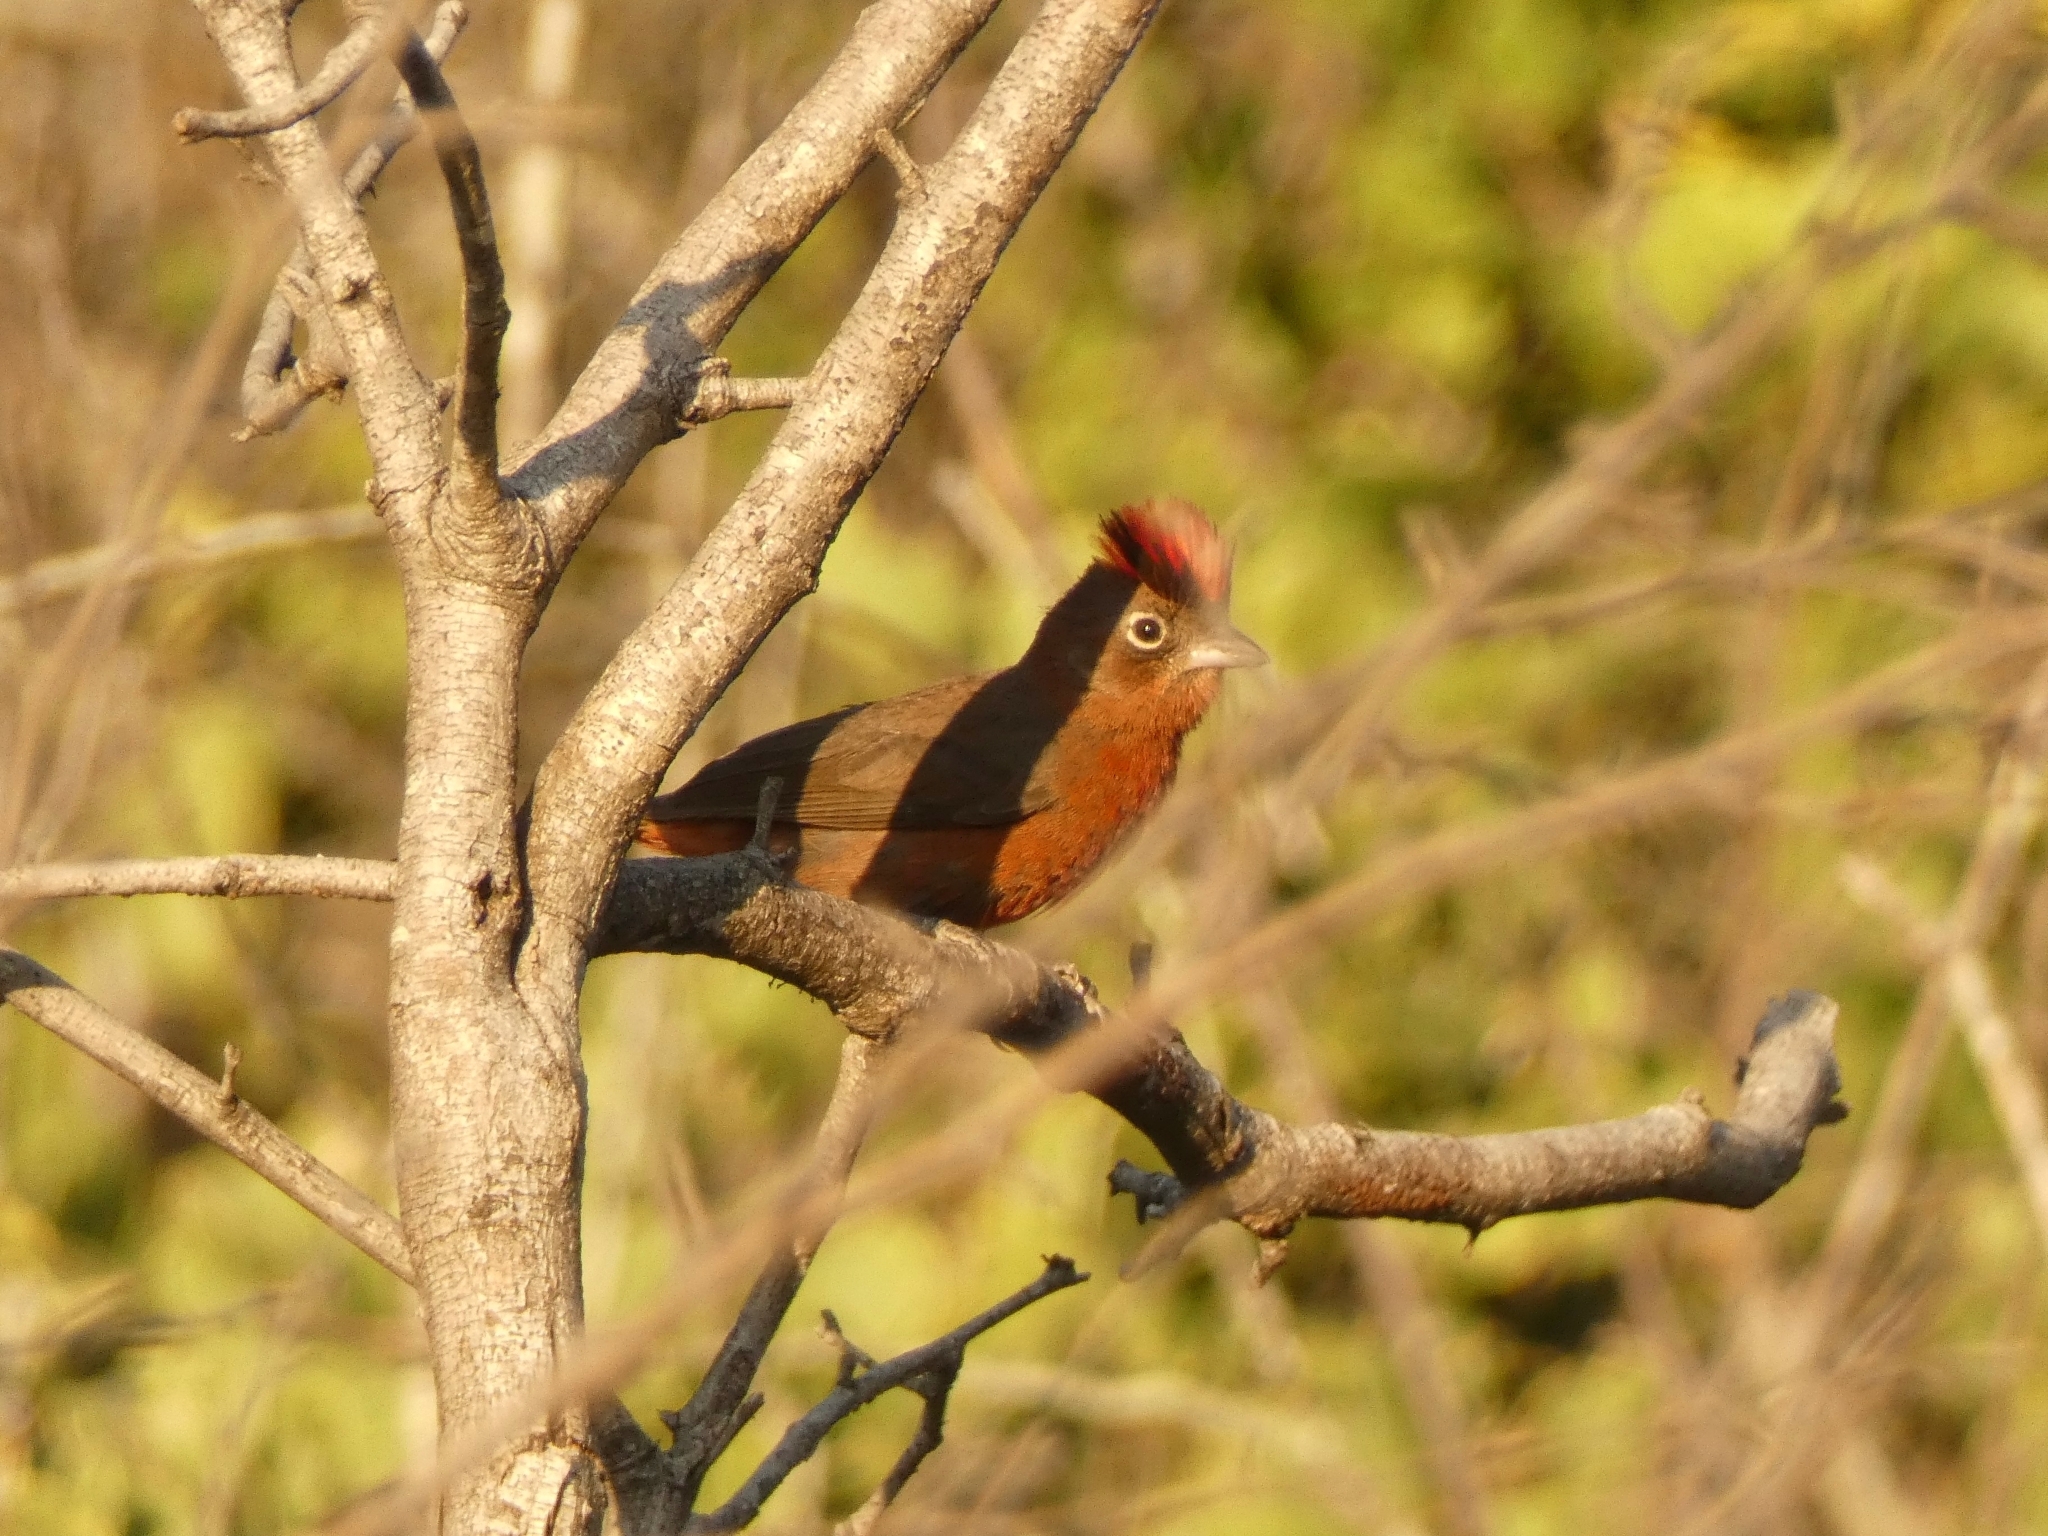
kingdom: Animalia
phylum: Chordata
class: Aves
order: Passeriformes
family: Thraupidae
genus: Coryphospingus
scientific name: Coryphospingus cucullatus
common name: Red pileated finch
